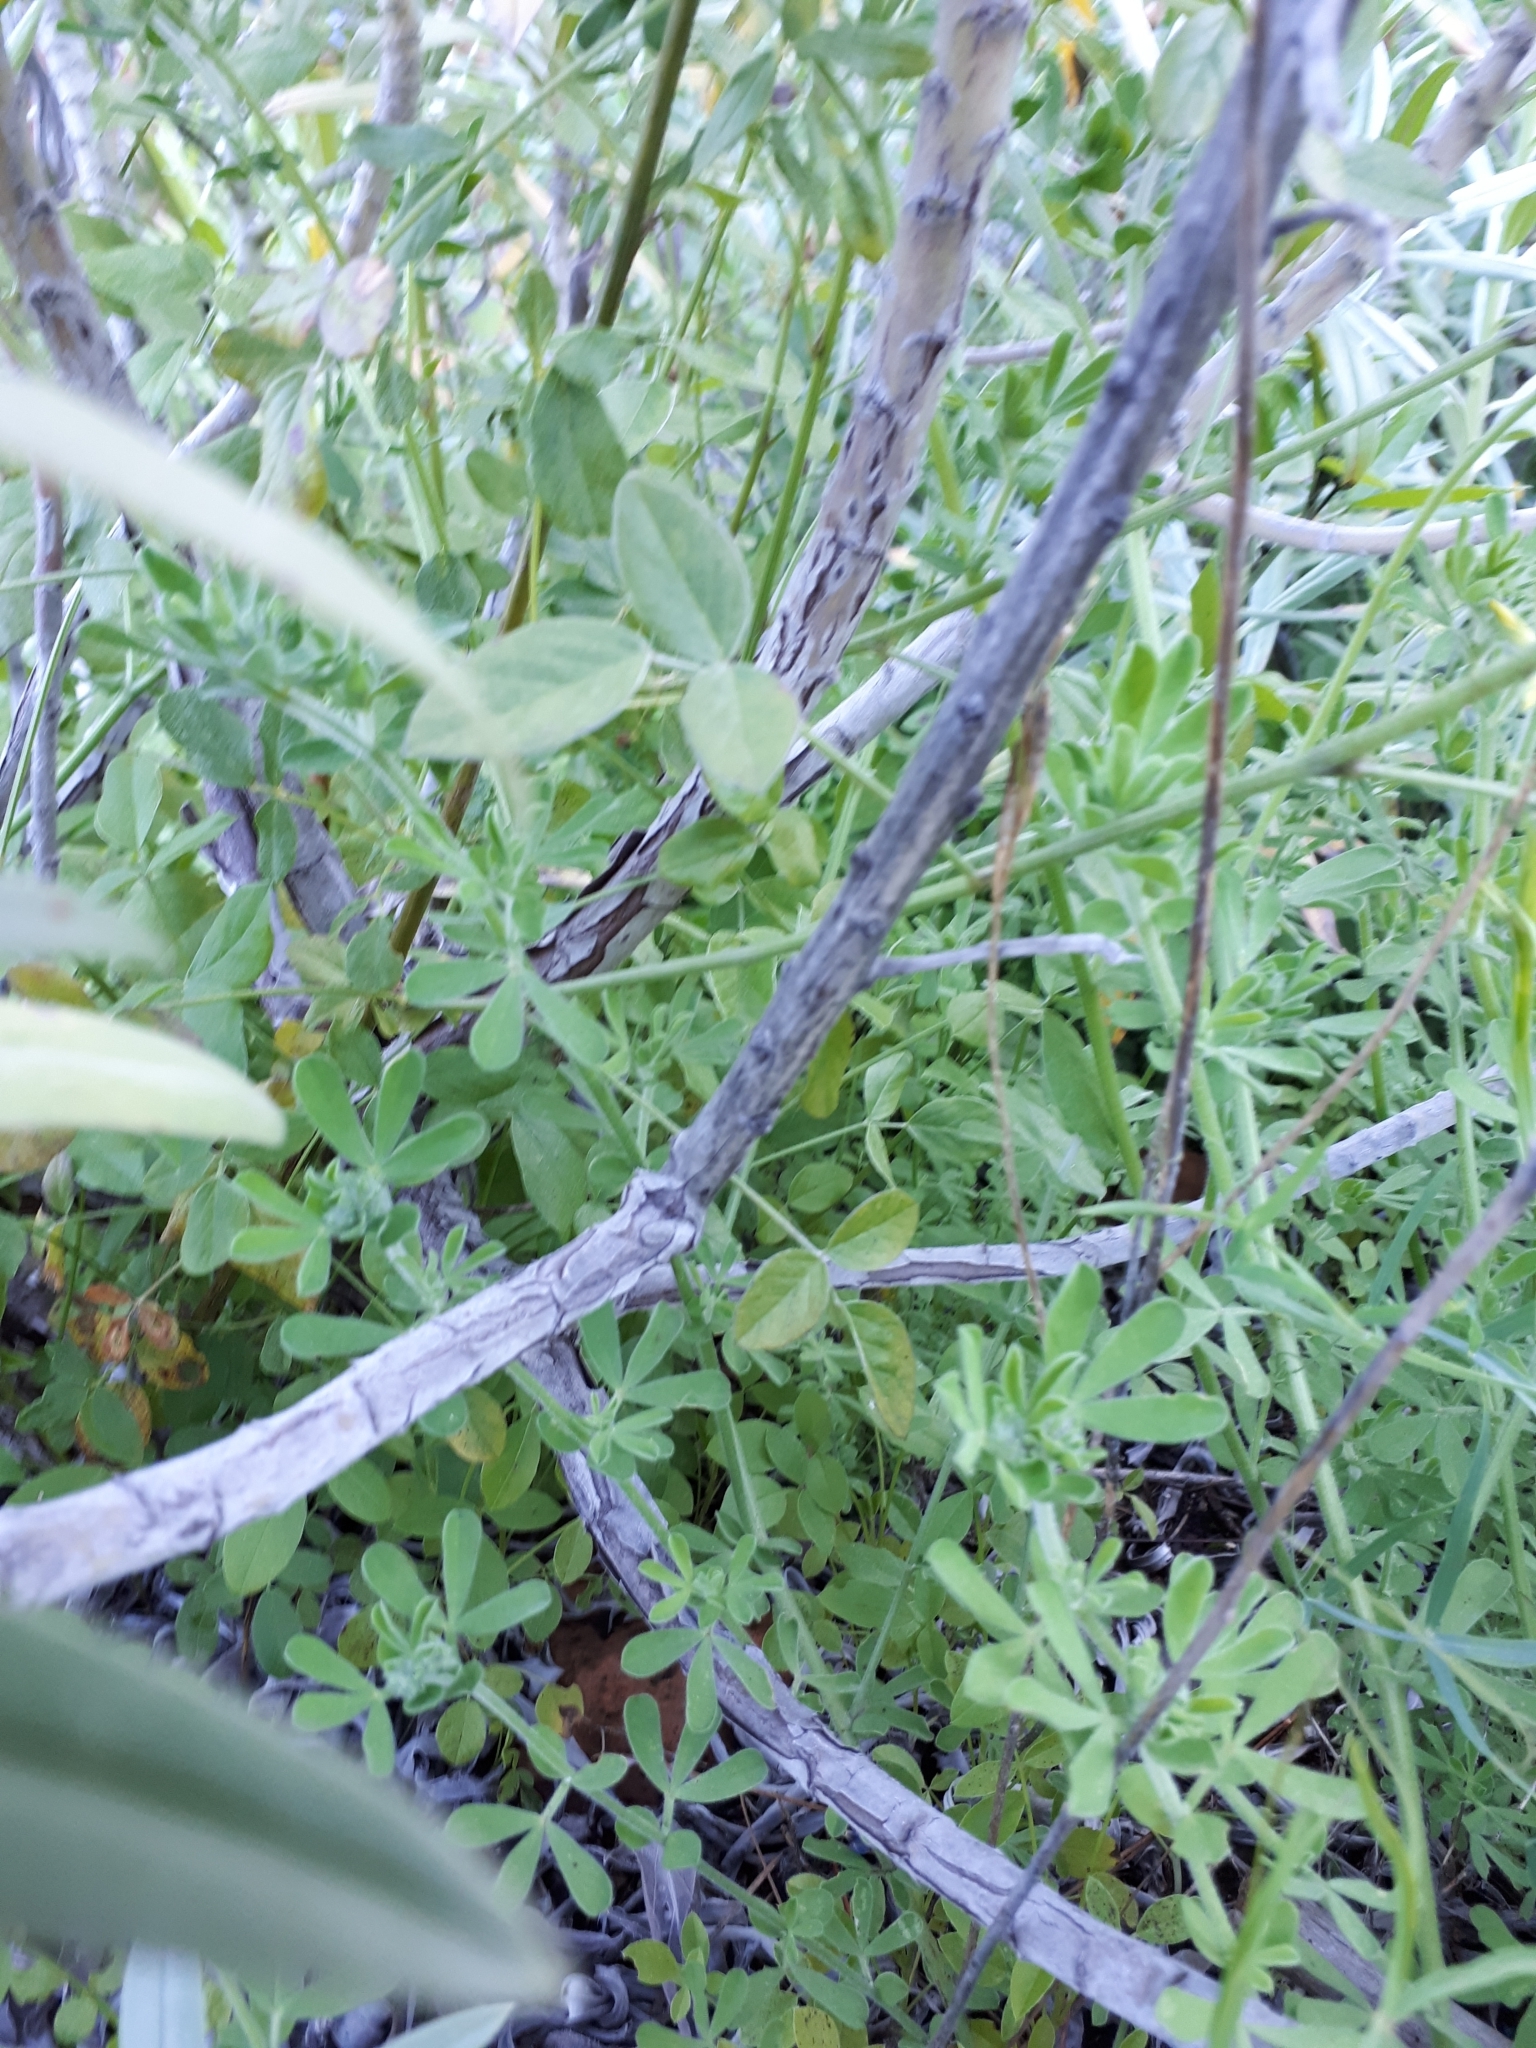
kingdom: Plantae
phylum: Tracheophyta
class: Magnoliopsida
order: Boraginales
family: Boraginaceae
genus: Echium
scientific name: Echium webbii
